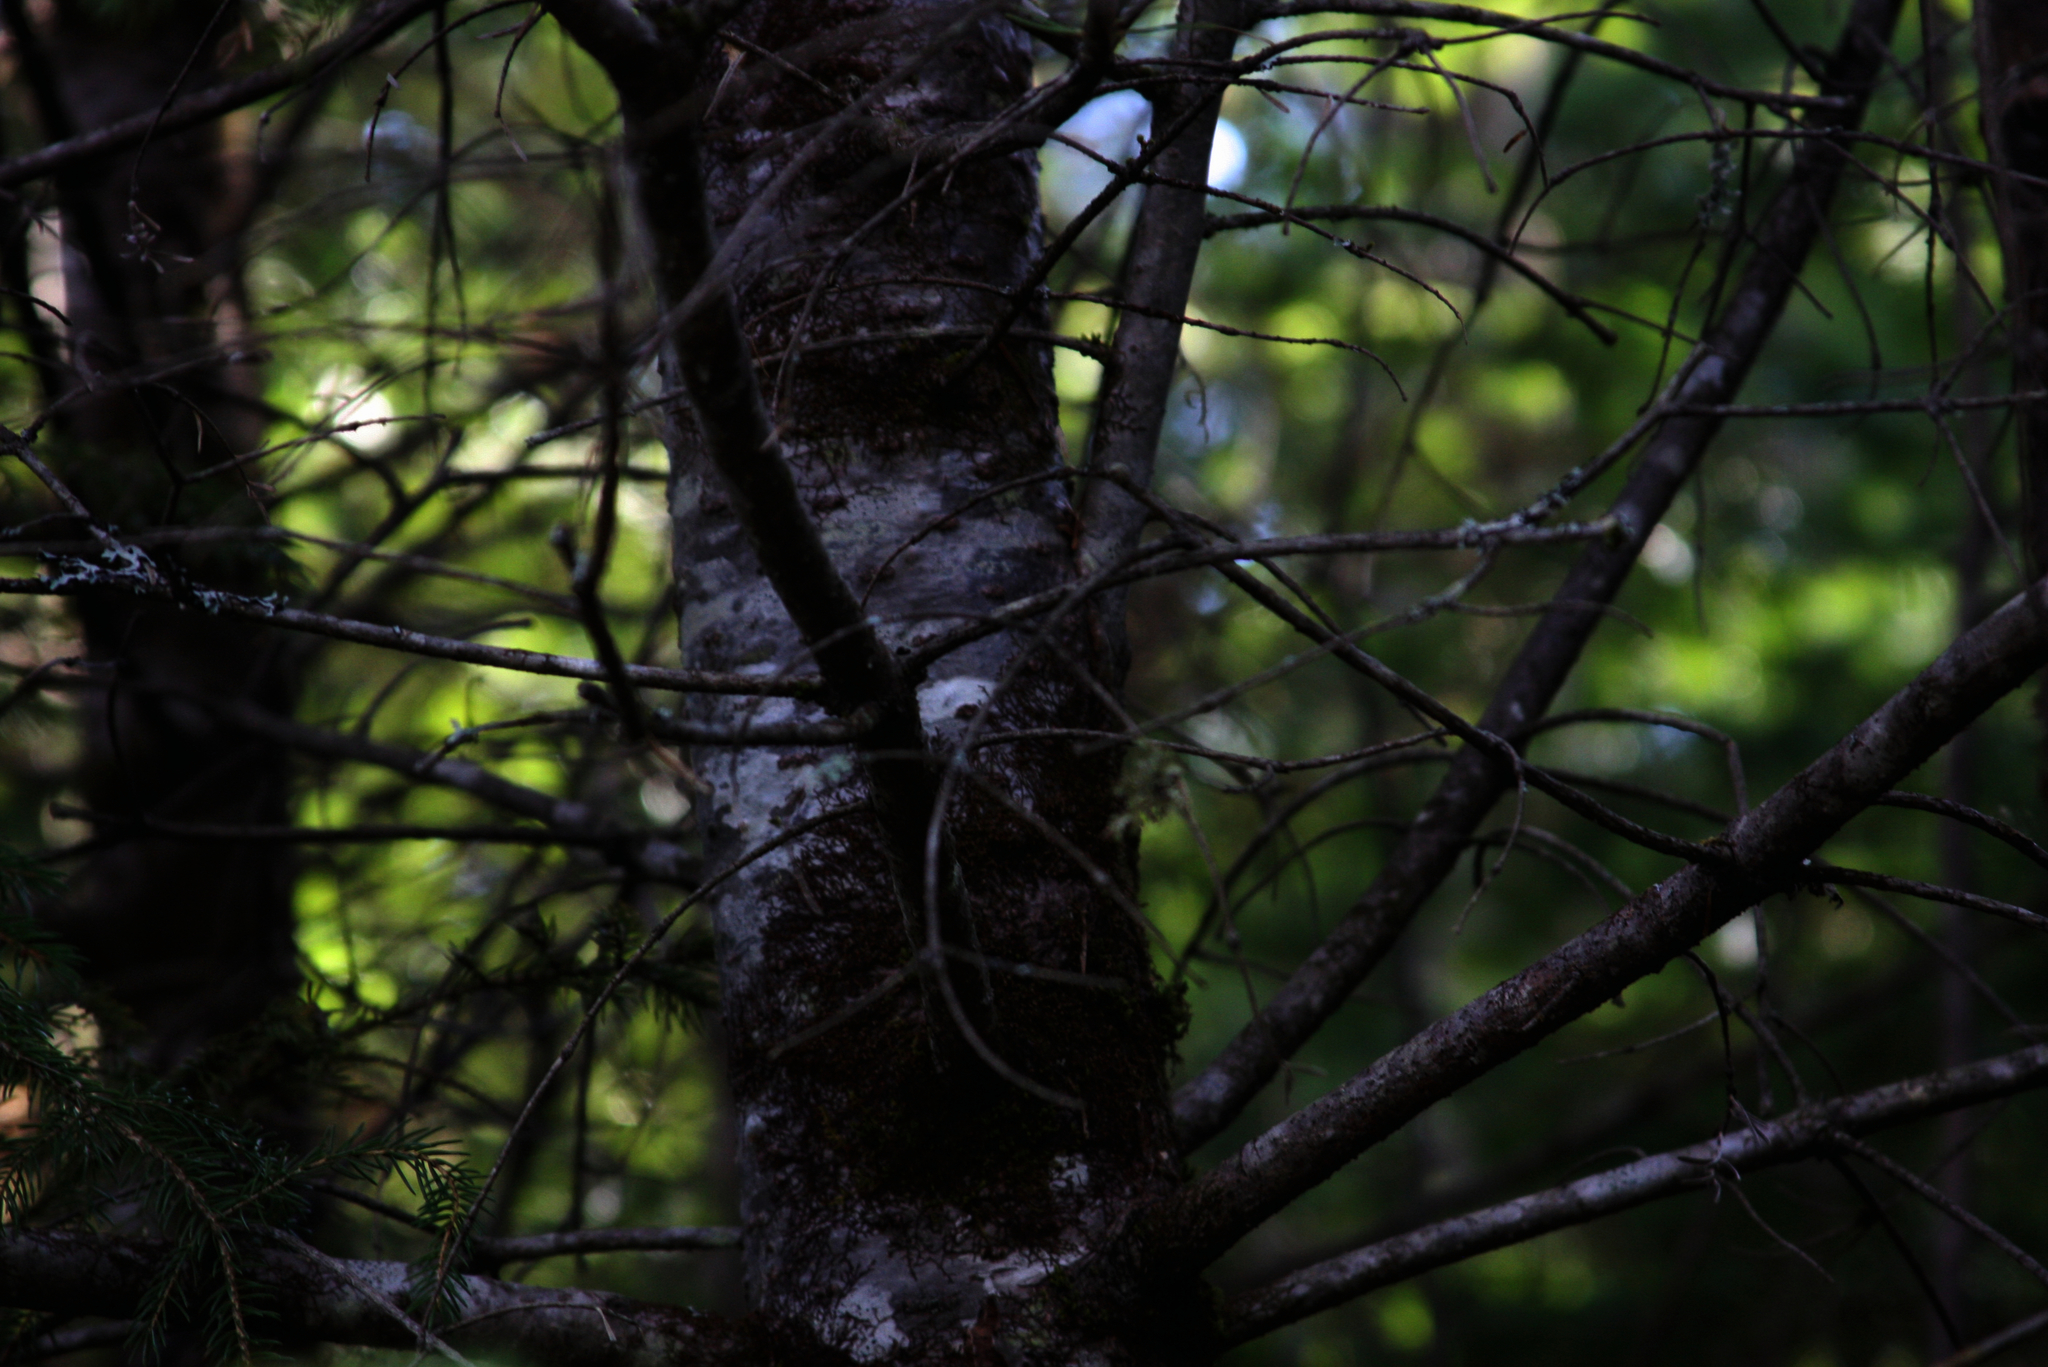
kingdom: Plantae
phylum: Tracheophyta
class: Pinopsida
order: Pinales
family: Pinaceae
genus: Abies
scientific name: Abies balsamea
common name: Balsam fir
